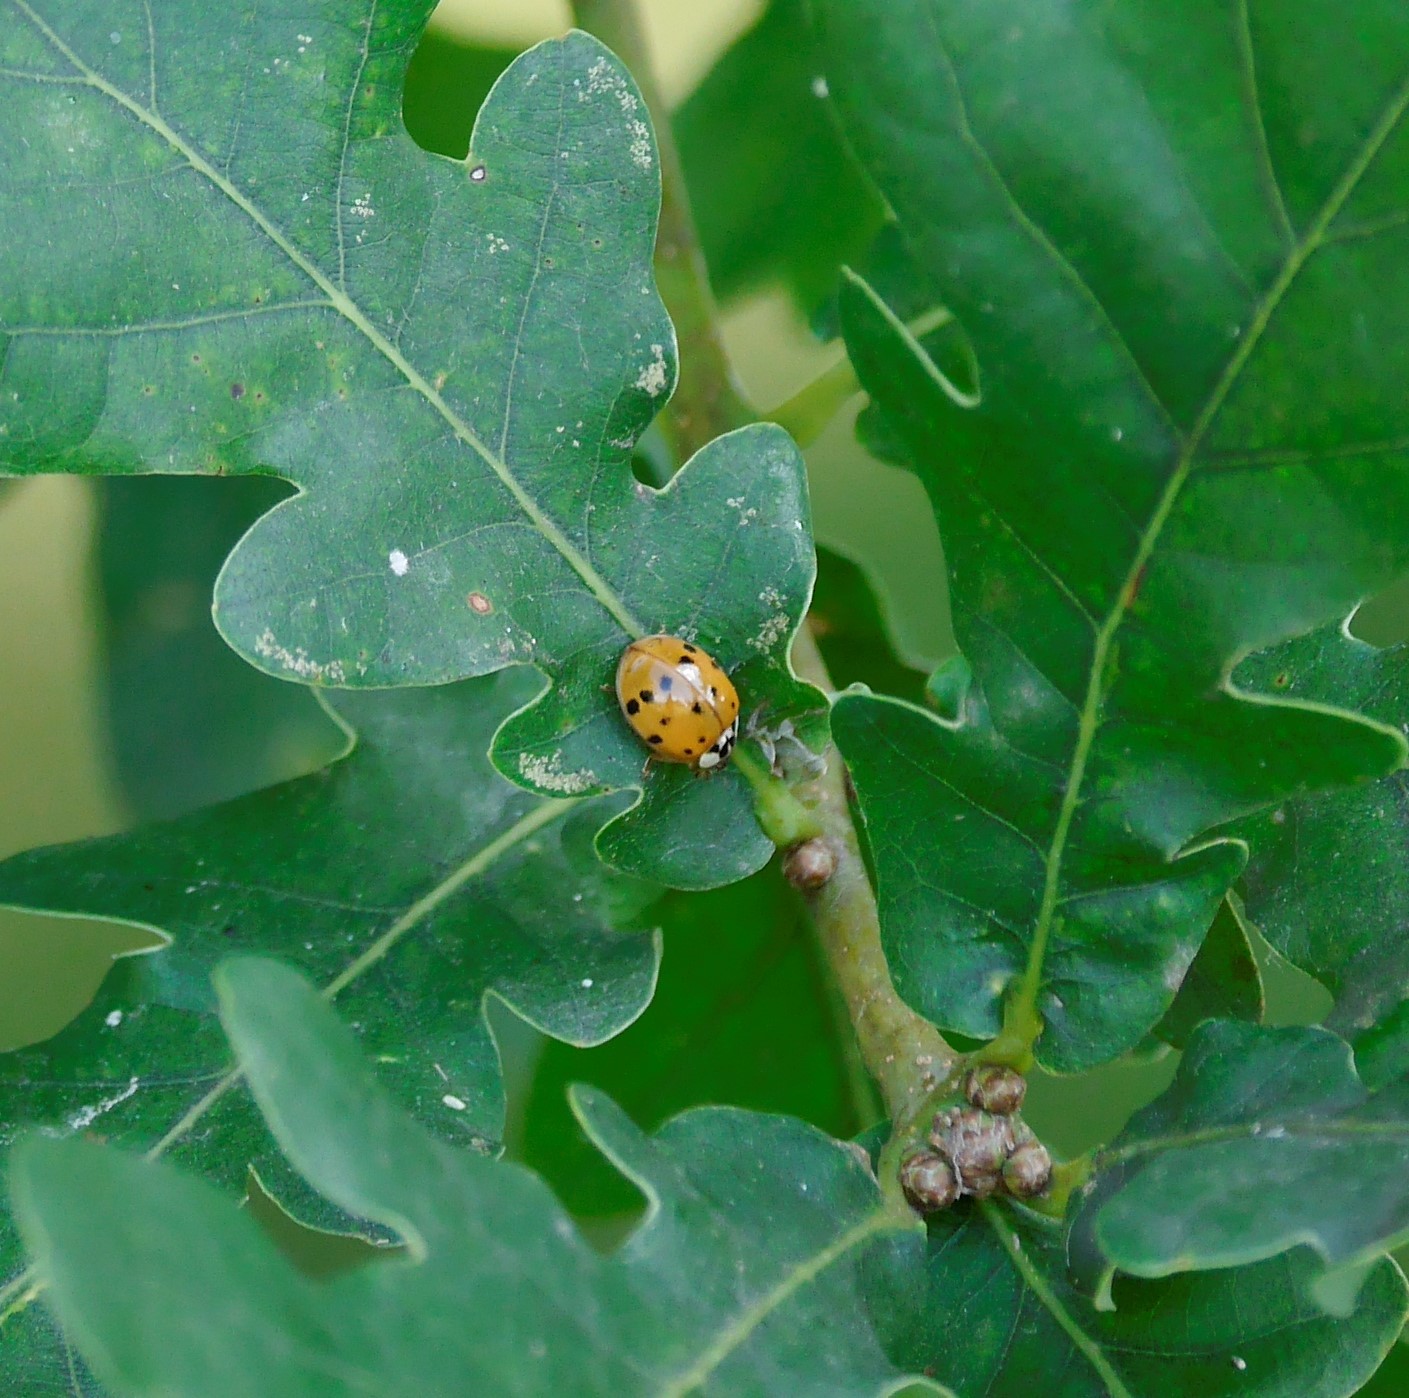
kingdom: Animalia
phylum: Arthropoda
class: Insecta
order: Coleoptera
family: Coccinellidae
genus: Harmonia
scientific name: Harmonia axyridis
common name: Harlequin ladybird
